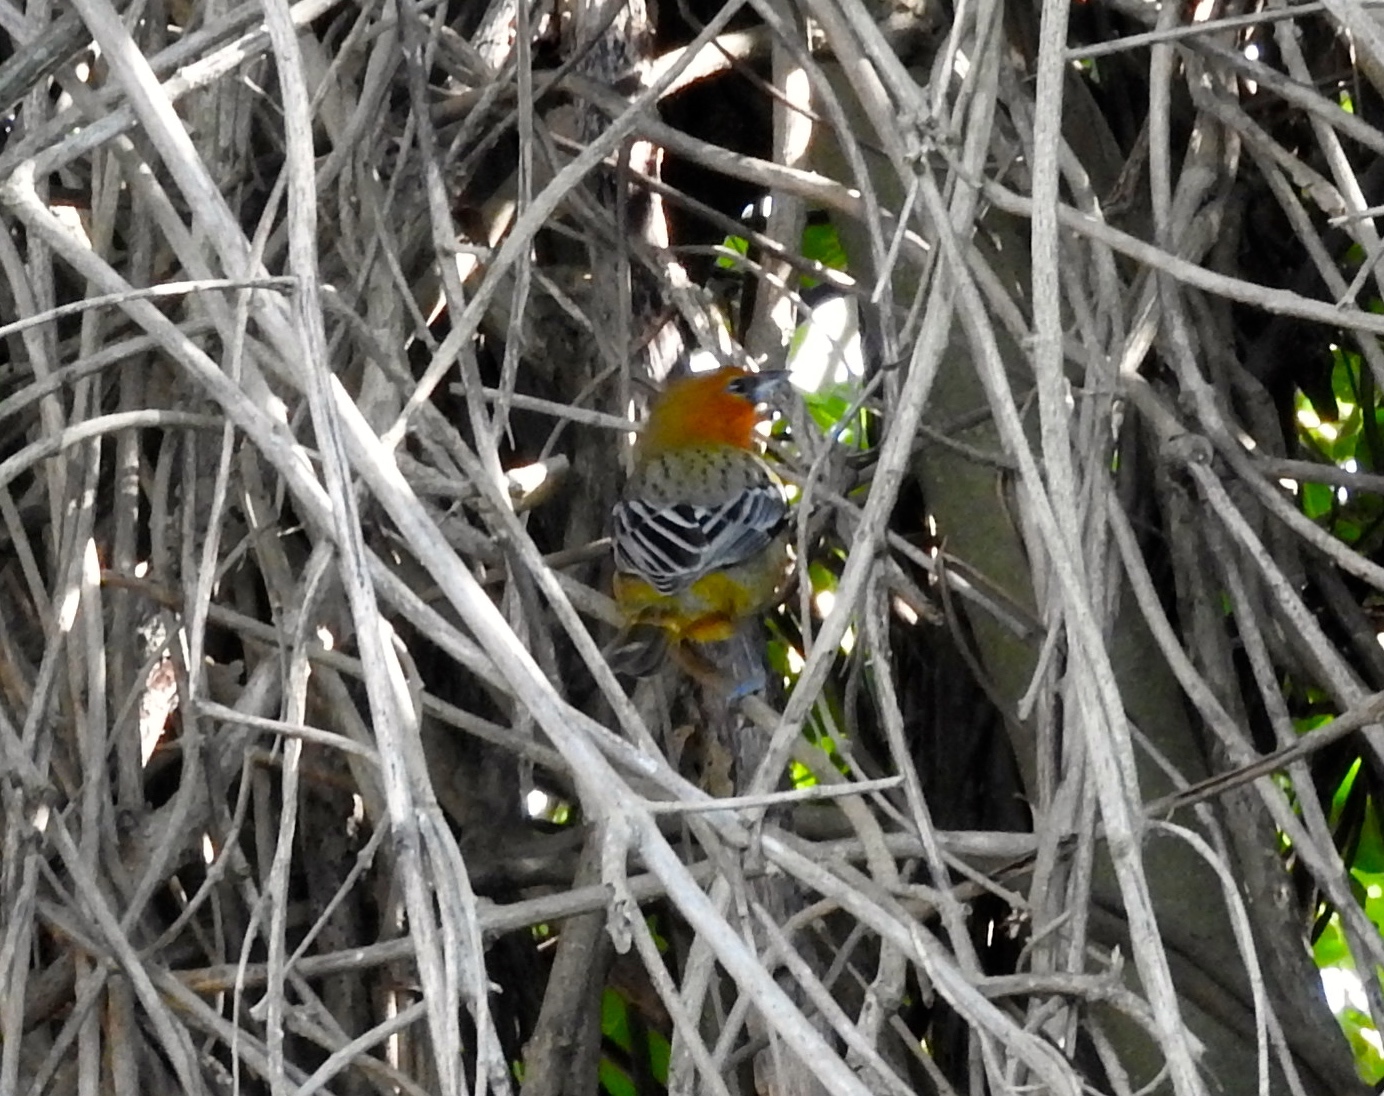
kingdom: Animalia
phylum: Chordata
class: Aves
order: Passeriformes
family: Icteridae
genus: Icterus
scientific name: Icterus pustulatus
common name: Streak-backed oriole
